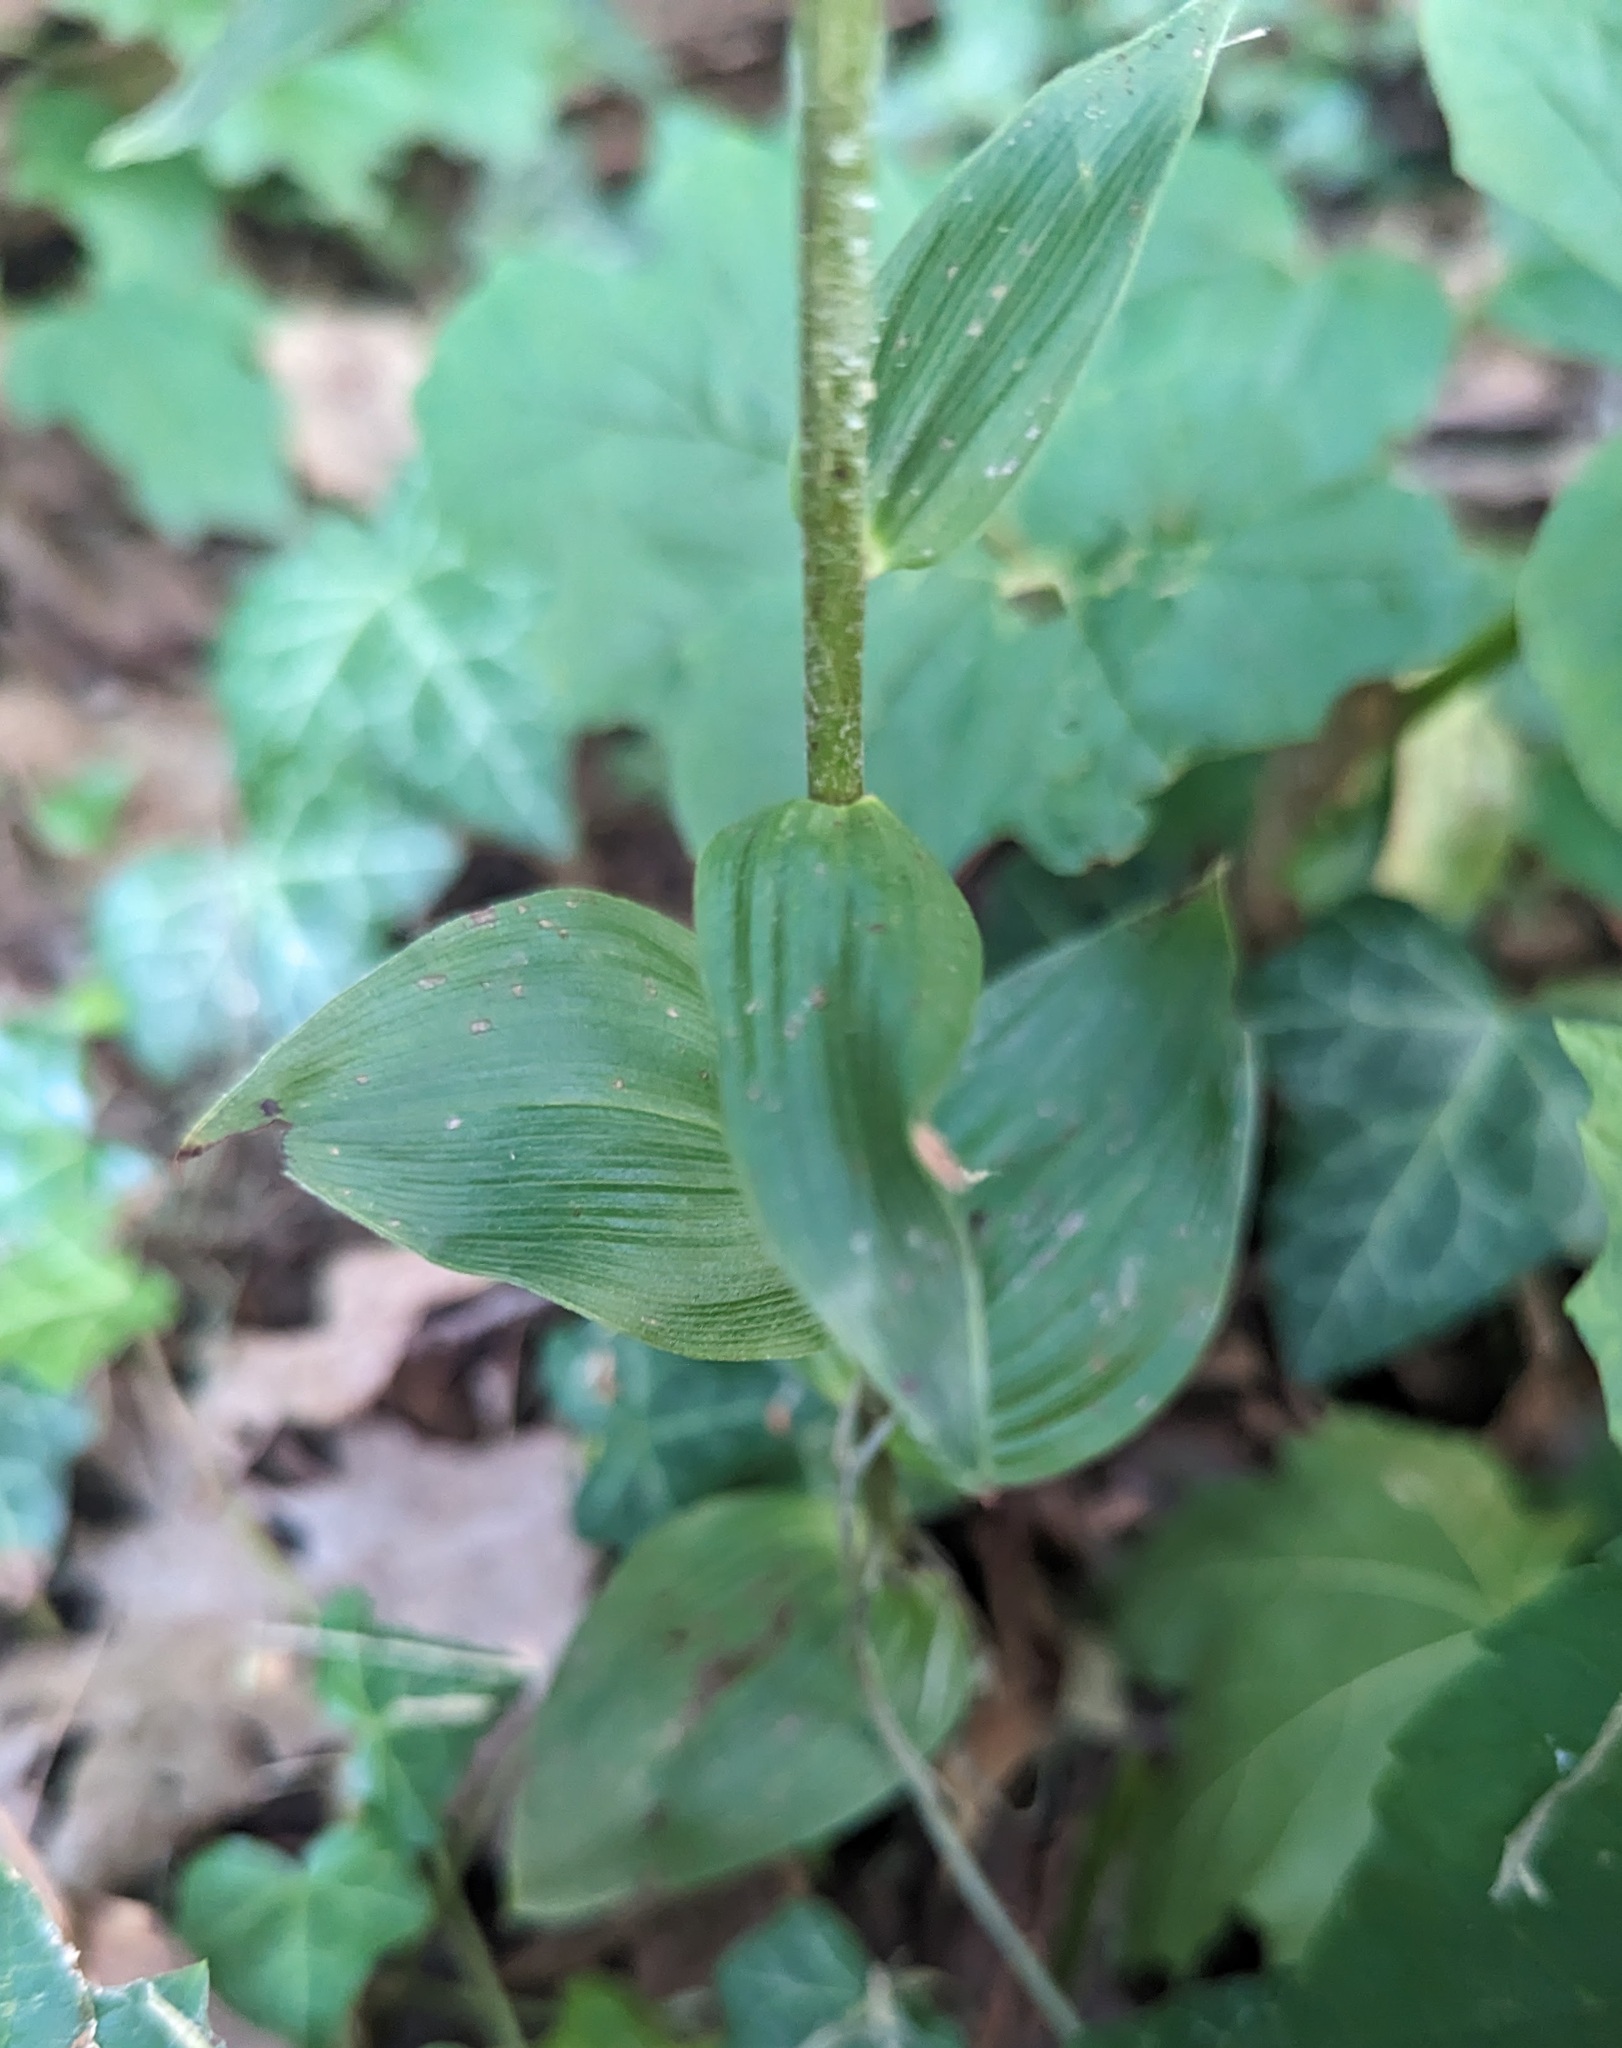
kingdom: Plantae
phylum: Tracheophyta
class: Liliopsida
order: Asparagales
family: Orchidaceae
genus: Epipactis
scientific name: Epipactis helleborine
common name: Broad-leaved helleborine
